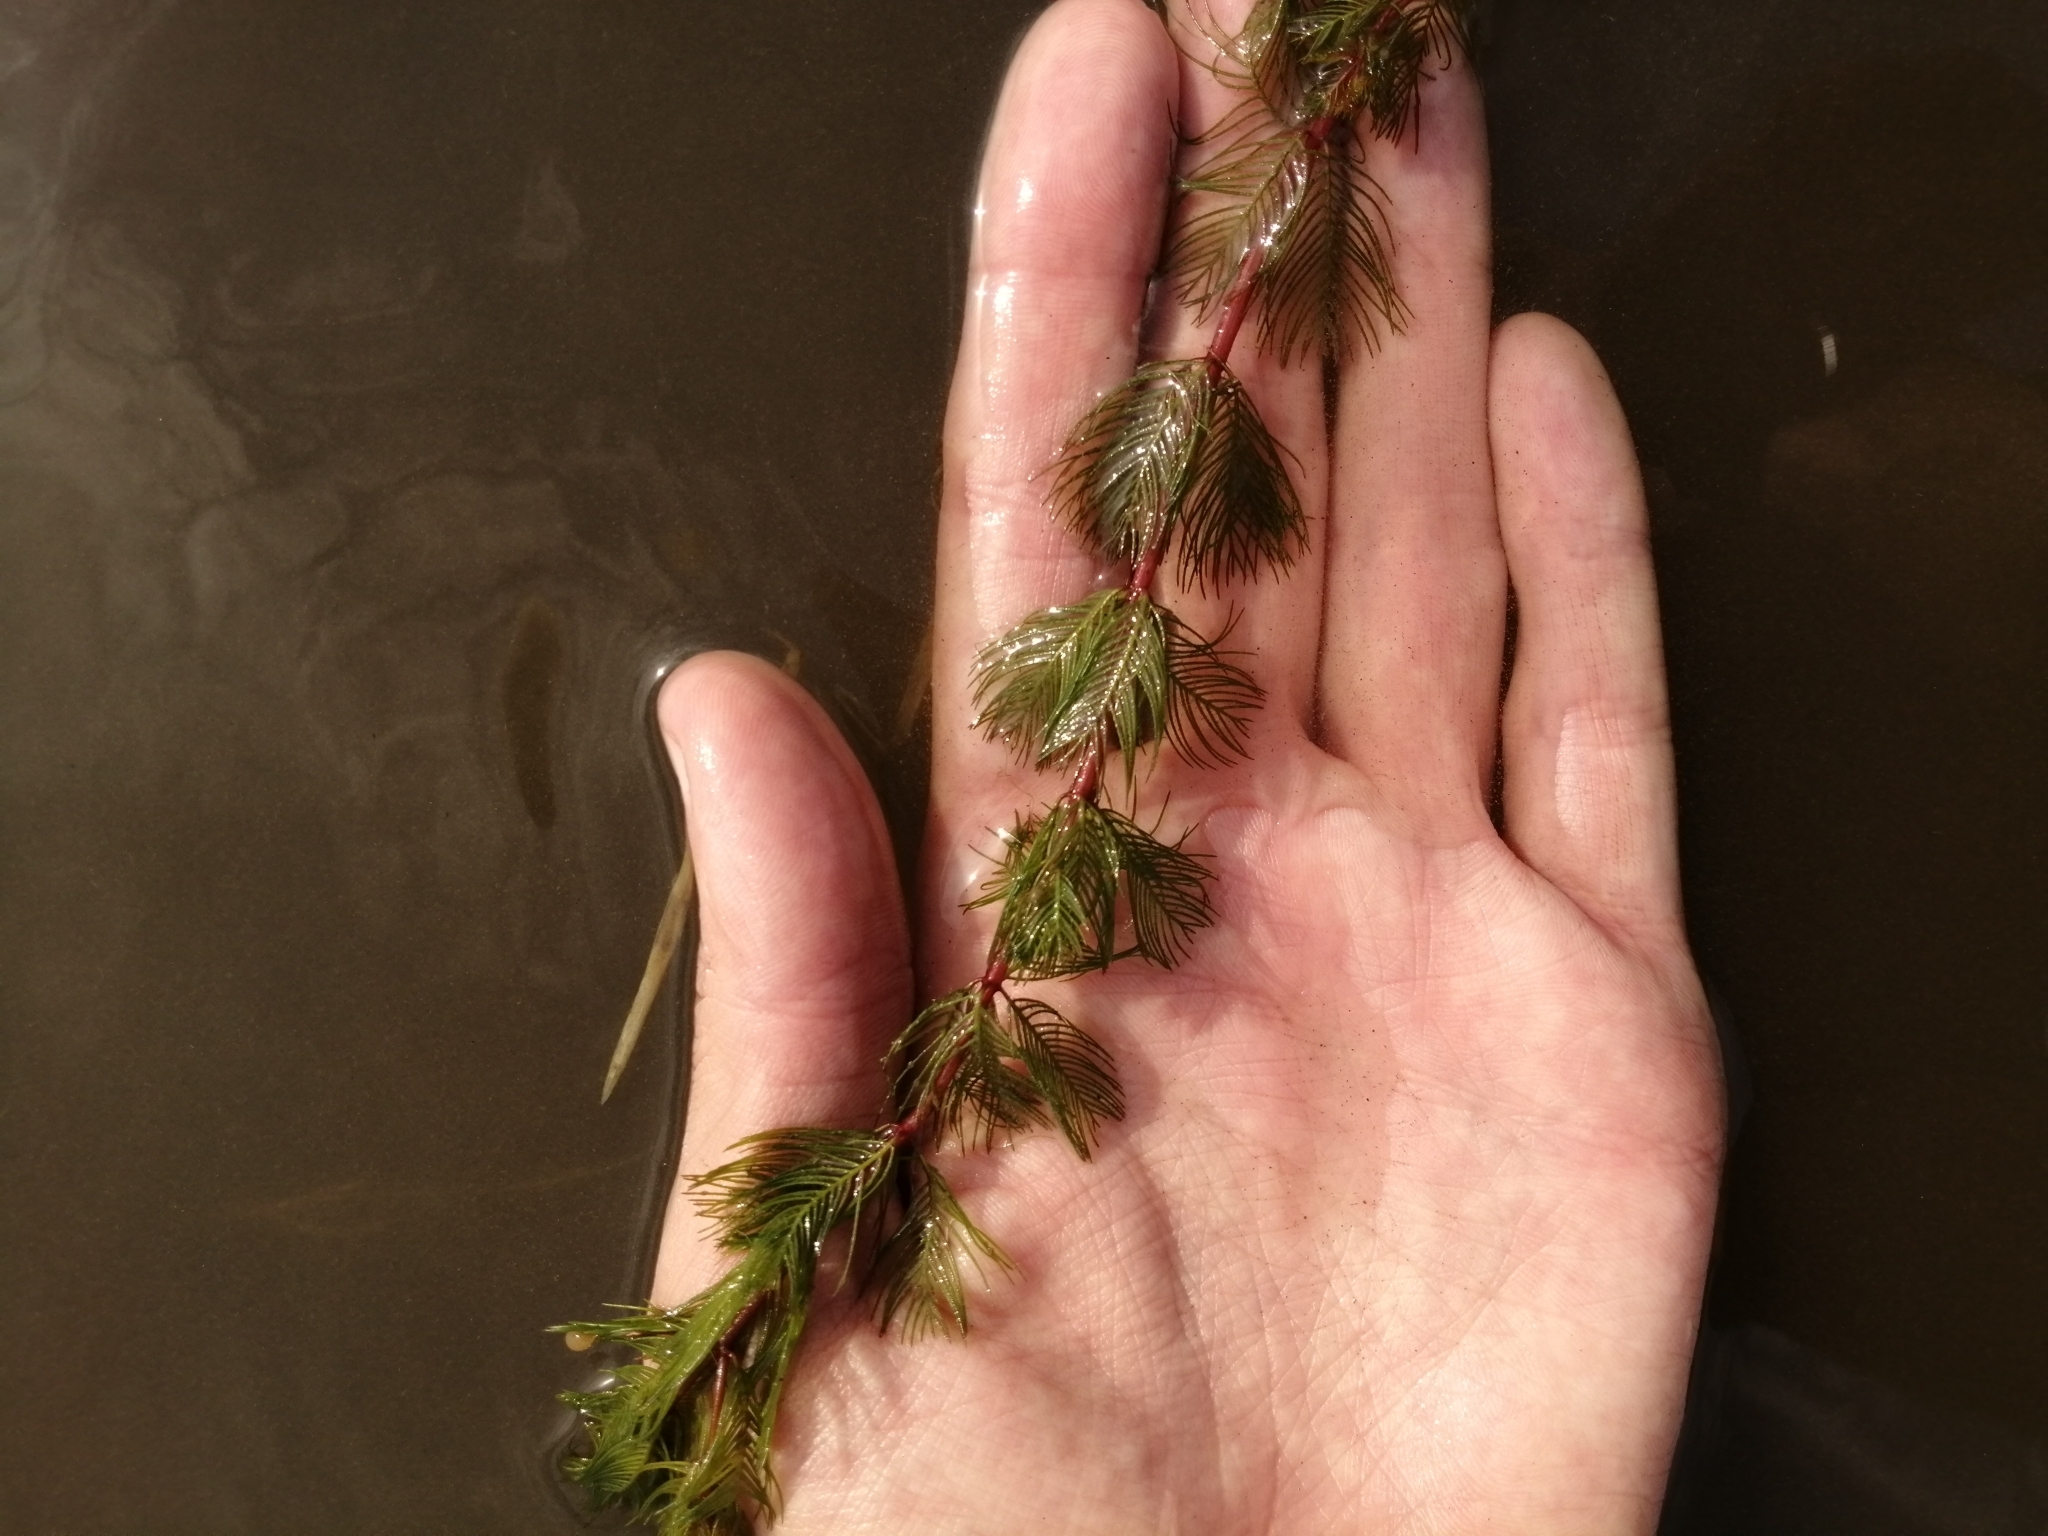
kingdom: Plantae
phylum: Tracheophyta
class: Magnoliopsida
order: Saxifragales
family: Haloragaceae
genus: Myriophyllum
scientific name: Myriophyllum spicatum
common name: Spiked water-milfoil
